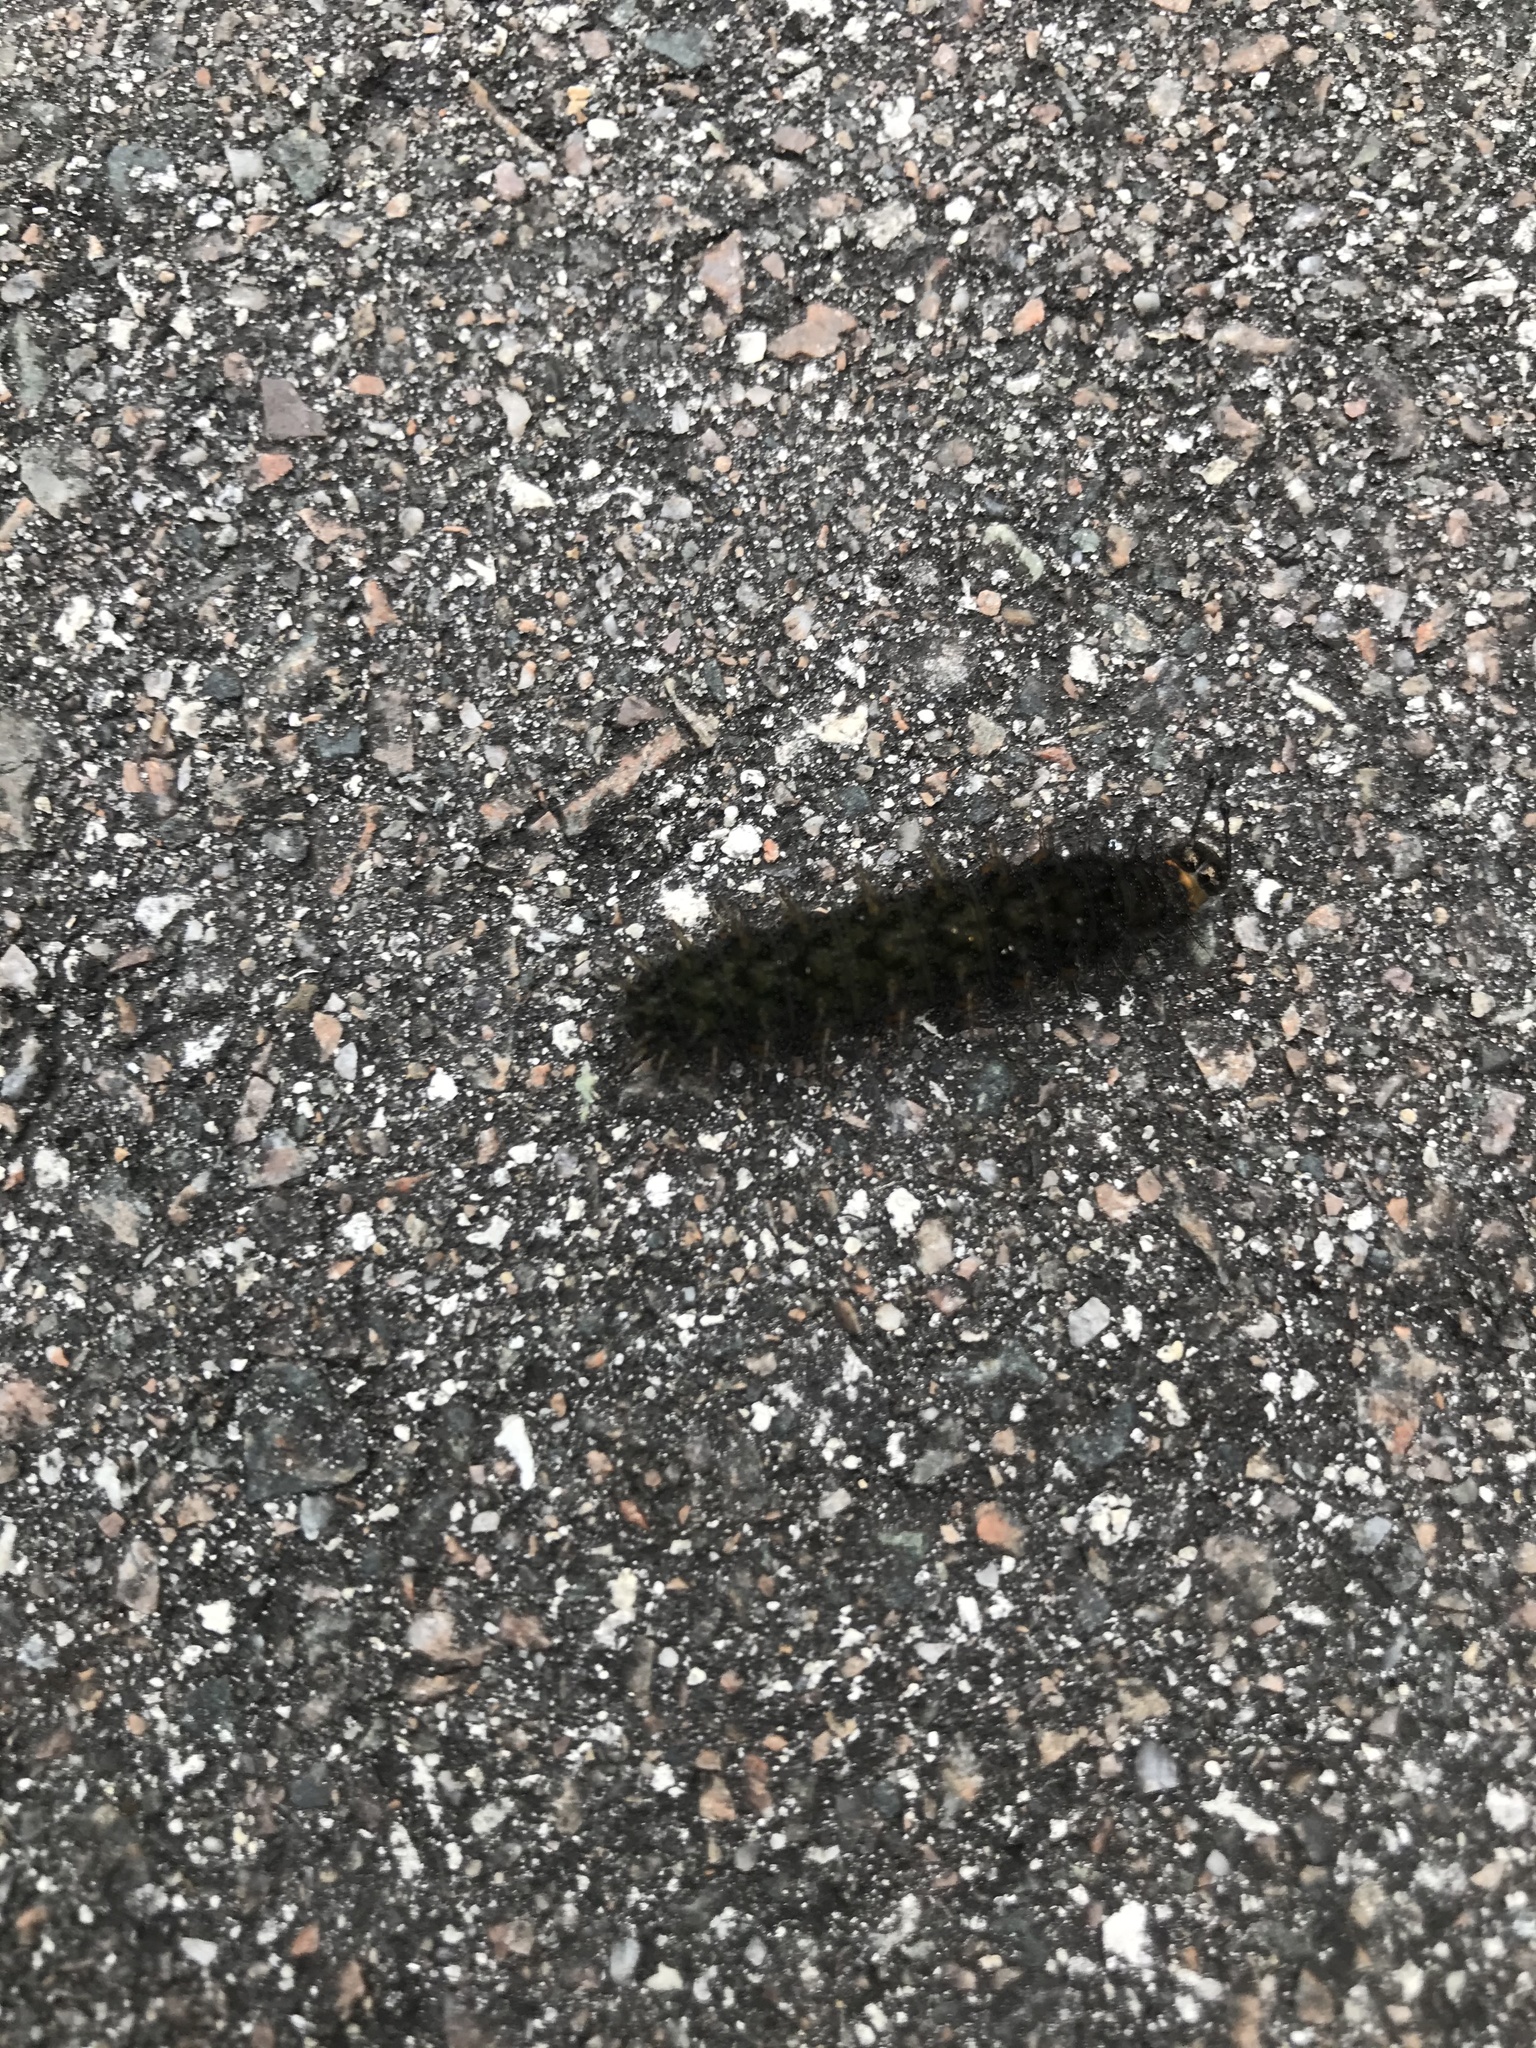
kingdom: Animalia
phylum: Arthropoda
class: Insecta
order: Lepidoptera
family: Nymphalidae
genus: Anartia
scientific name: Anartia jatrophae
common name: White peacock
